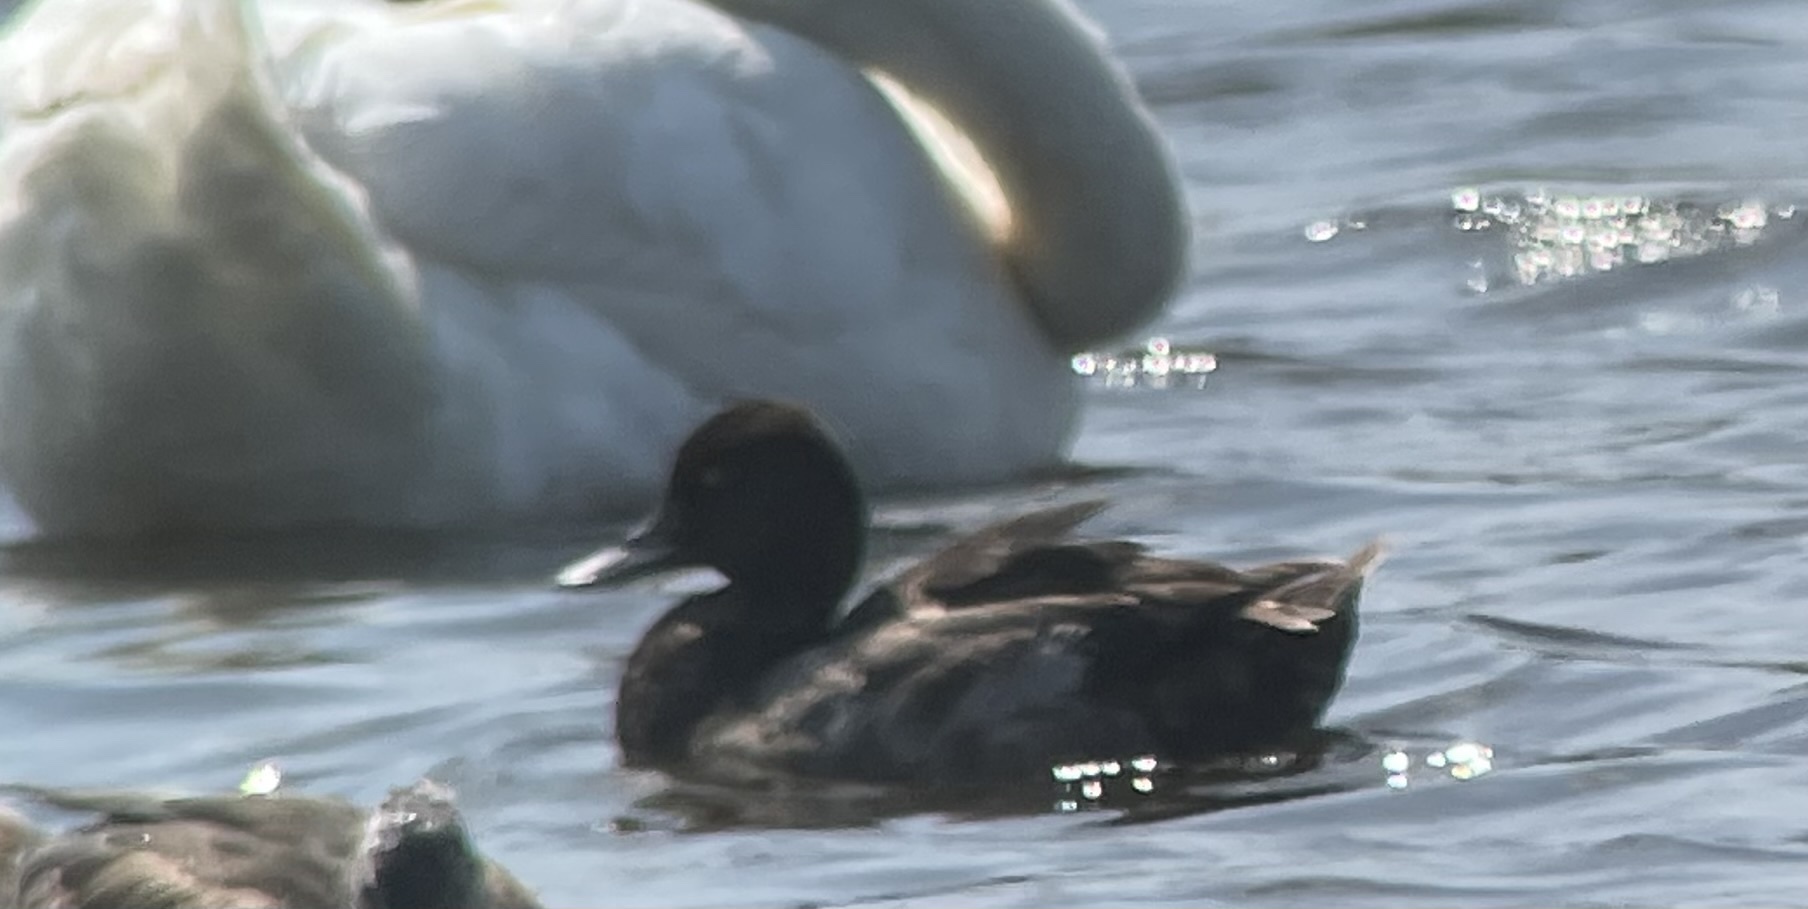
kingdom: Animalia
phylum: Chordata
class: Aves
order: Anseriformes
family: Anatidae
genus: Aythya
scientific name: Aythya affinis
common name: Lesser scaup
